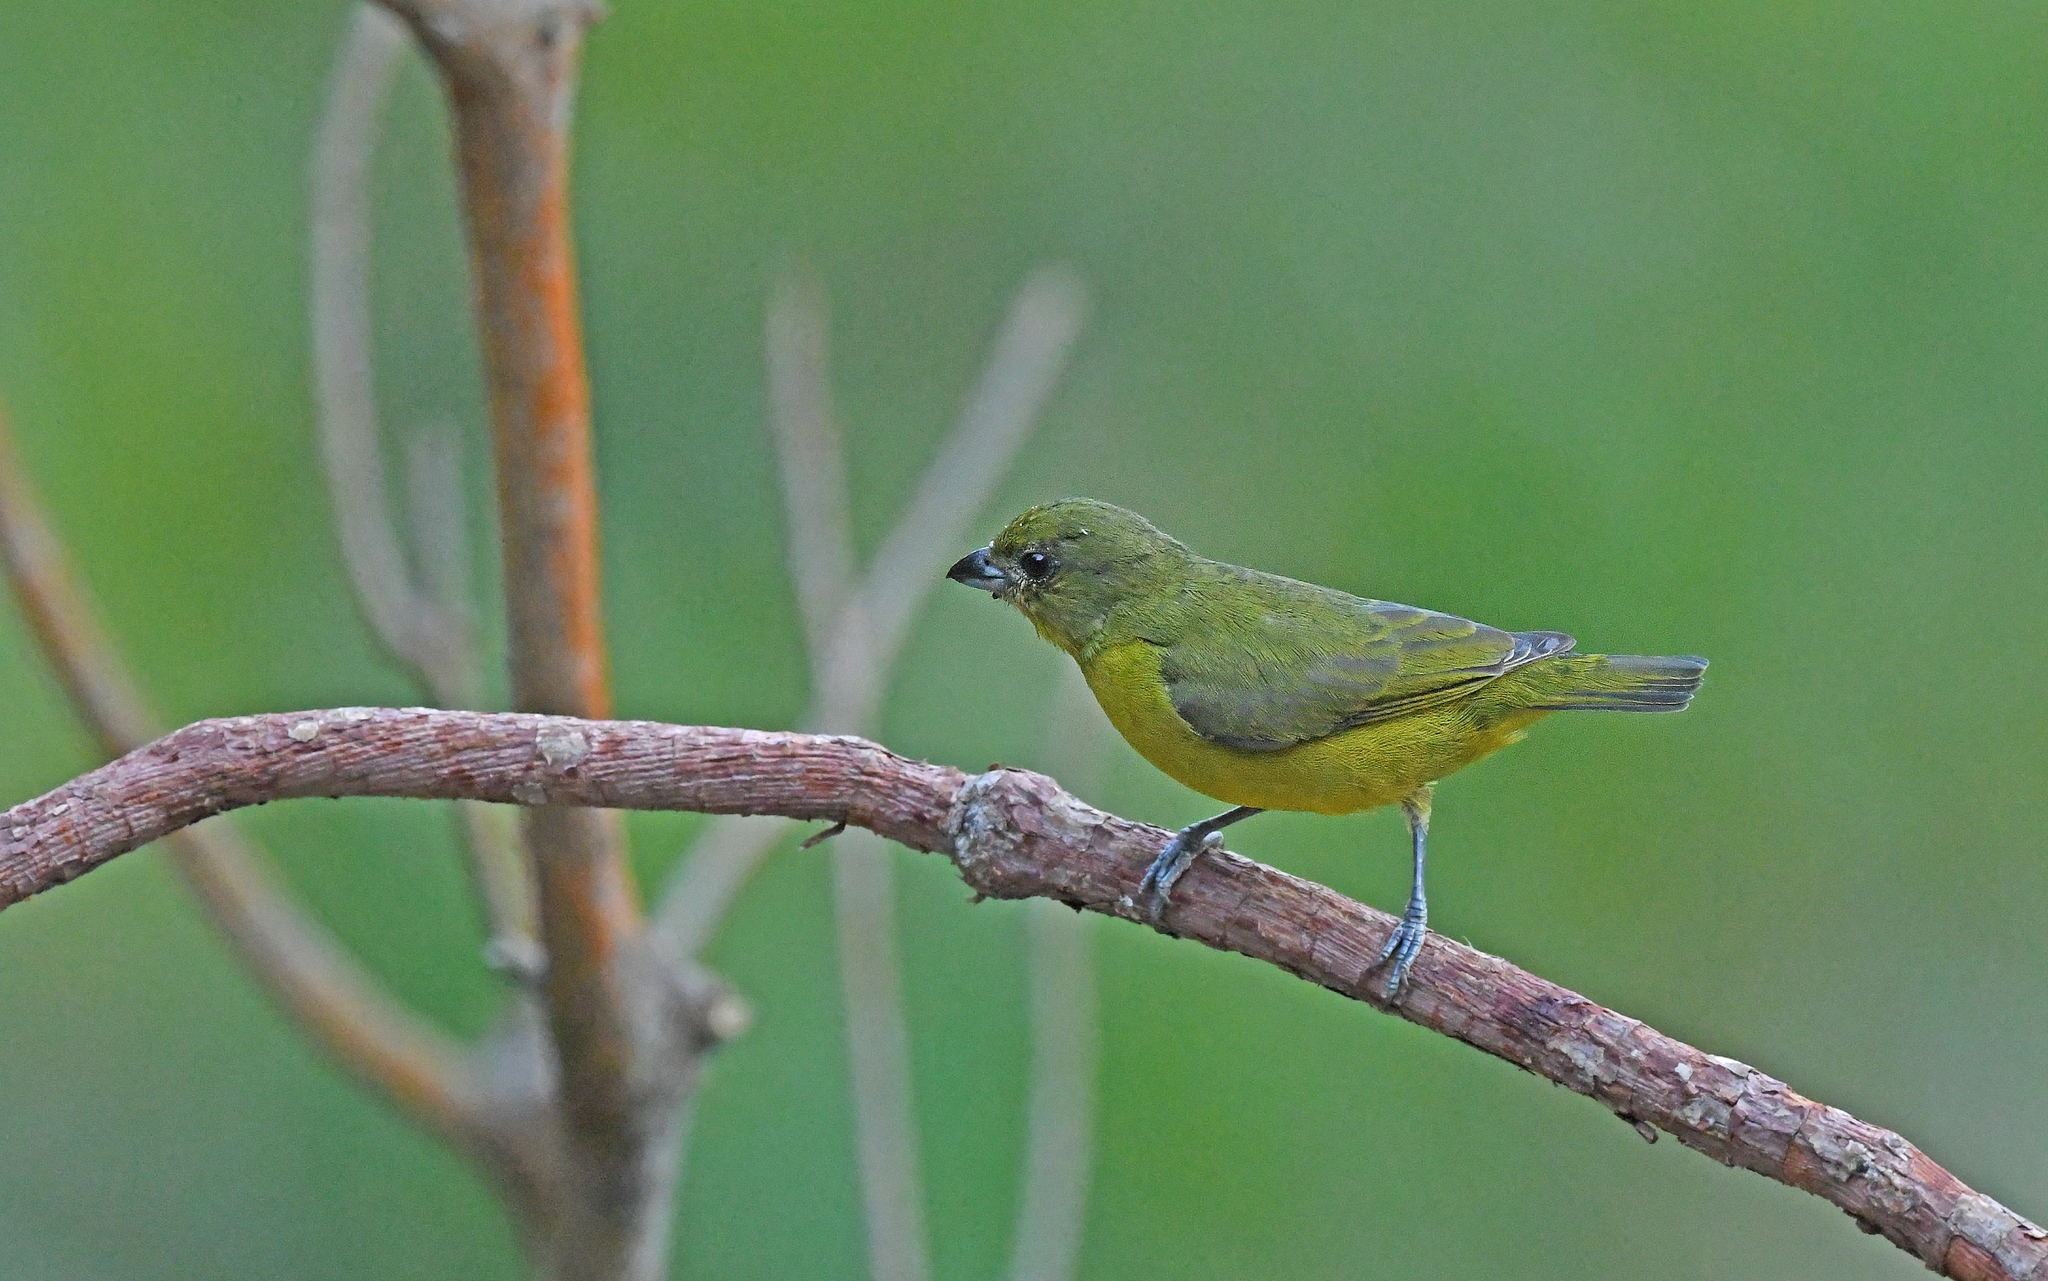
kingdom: Animalia
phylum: Chordata
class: Aves
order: Passeriformes
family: Fringillidae
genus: Euphonia
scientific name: Euphonia laniirostris
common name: Thick-billed euphonia
